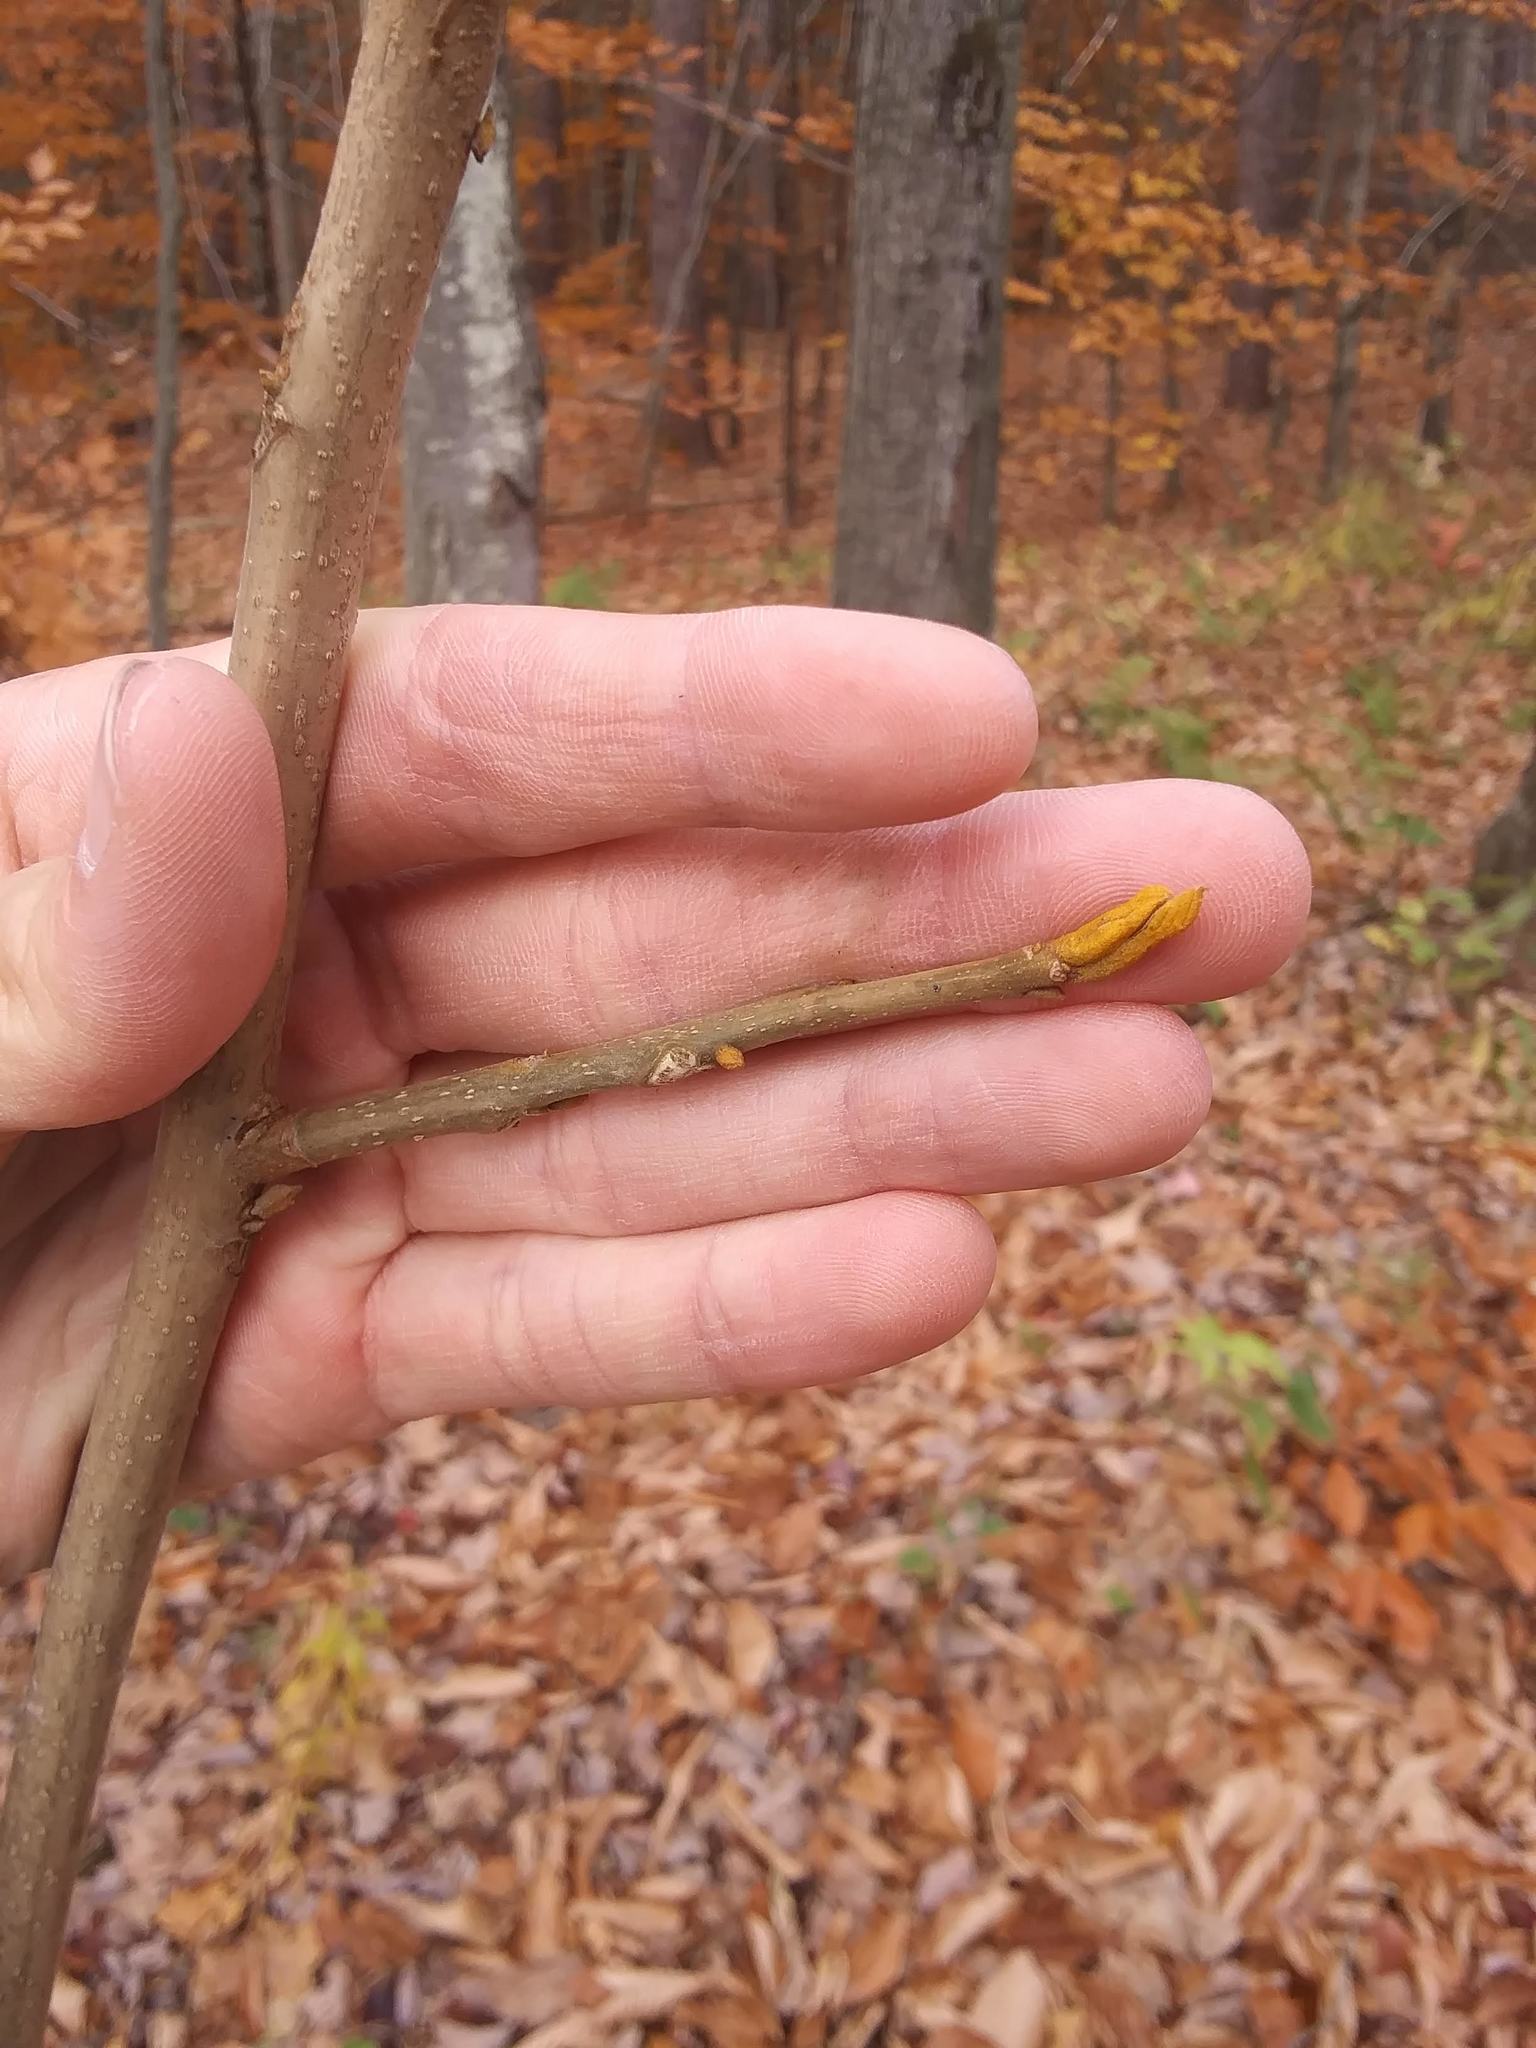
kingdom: Plantae
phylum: Tracheophyta
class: Magnoliopsida
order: Fagales
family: Juglandaceae
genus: Carya
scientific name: Carya cordiformis
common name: Bitternut hickory
